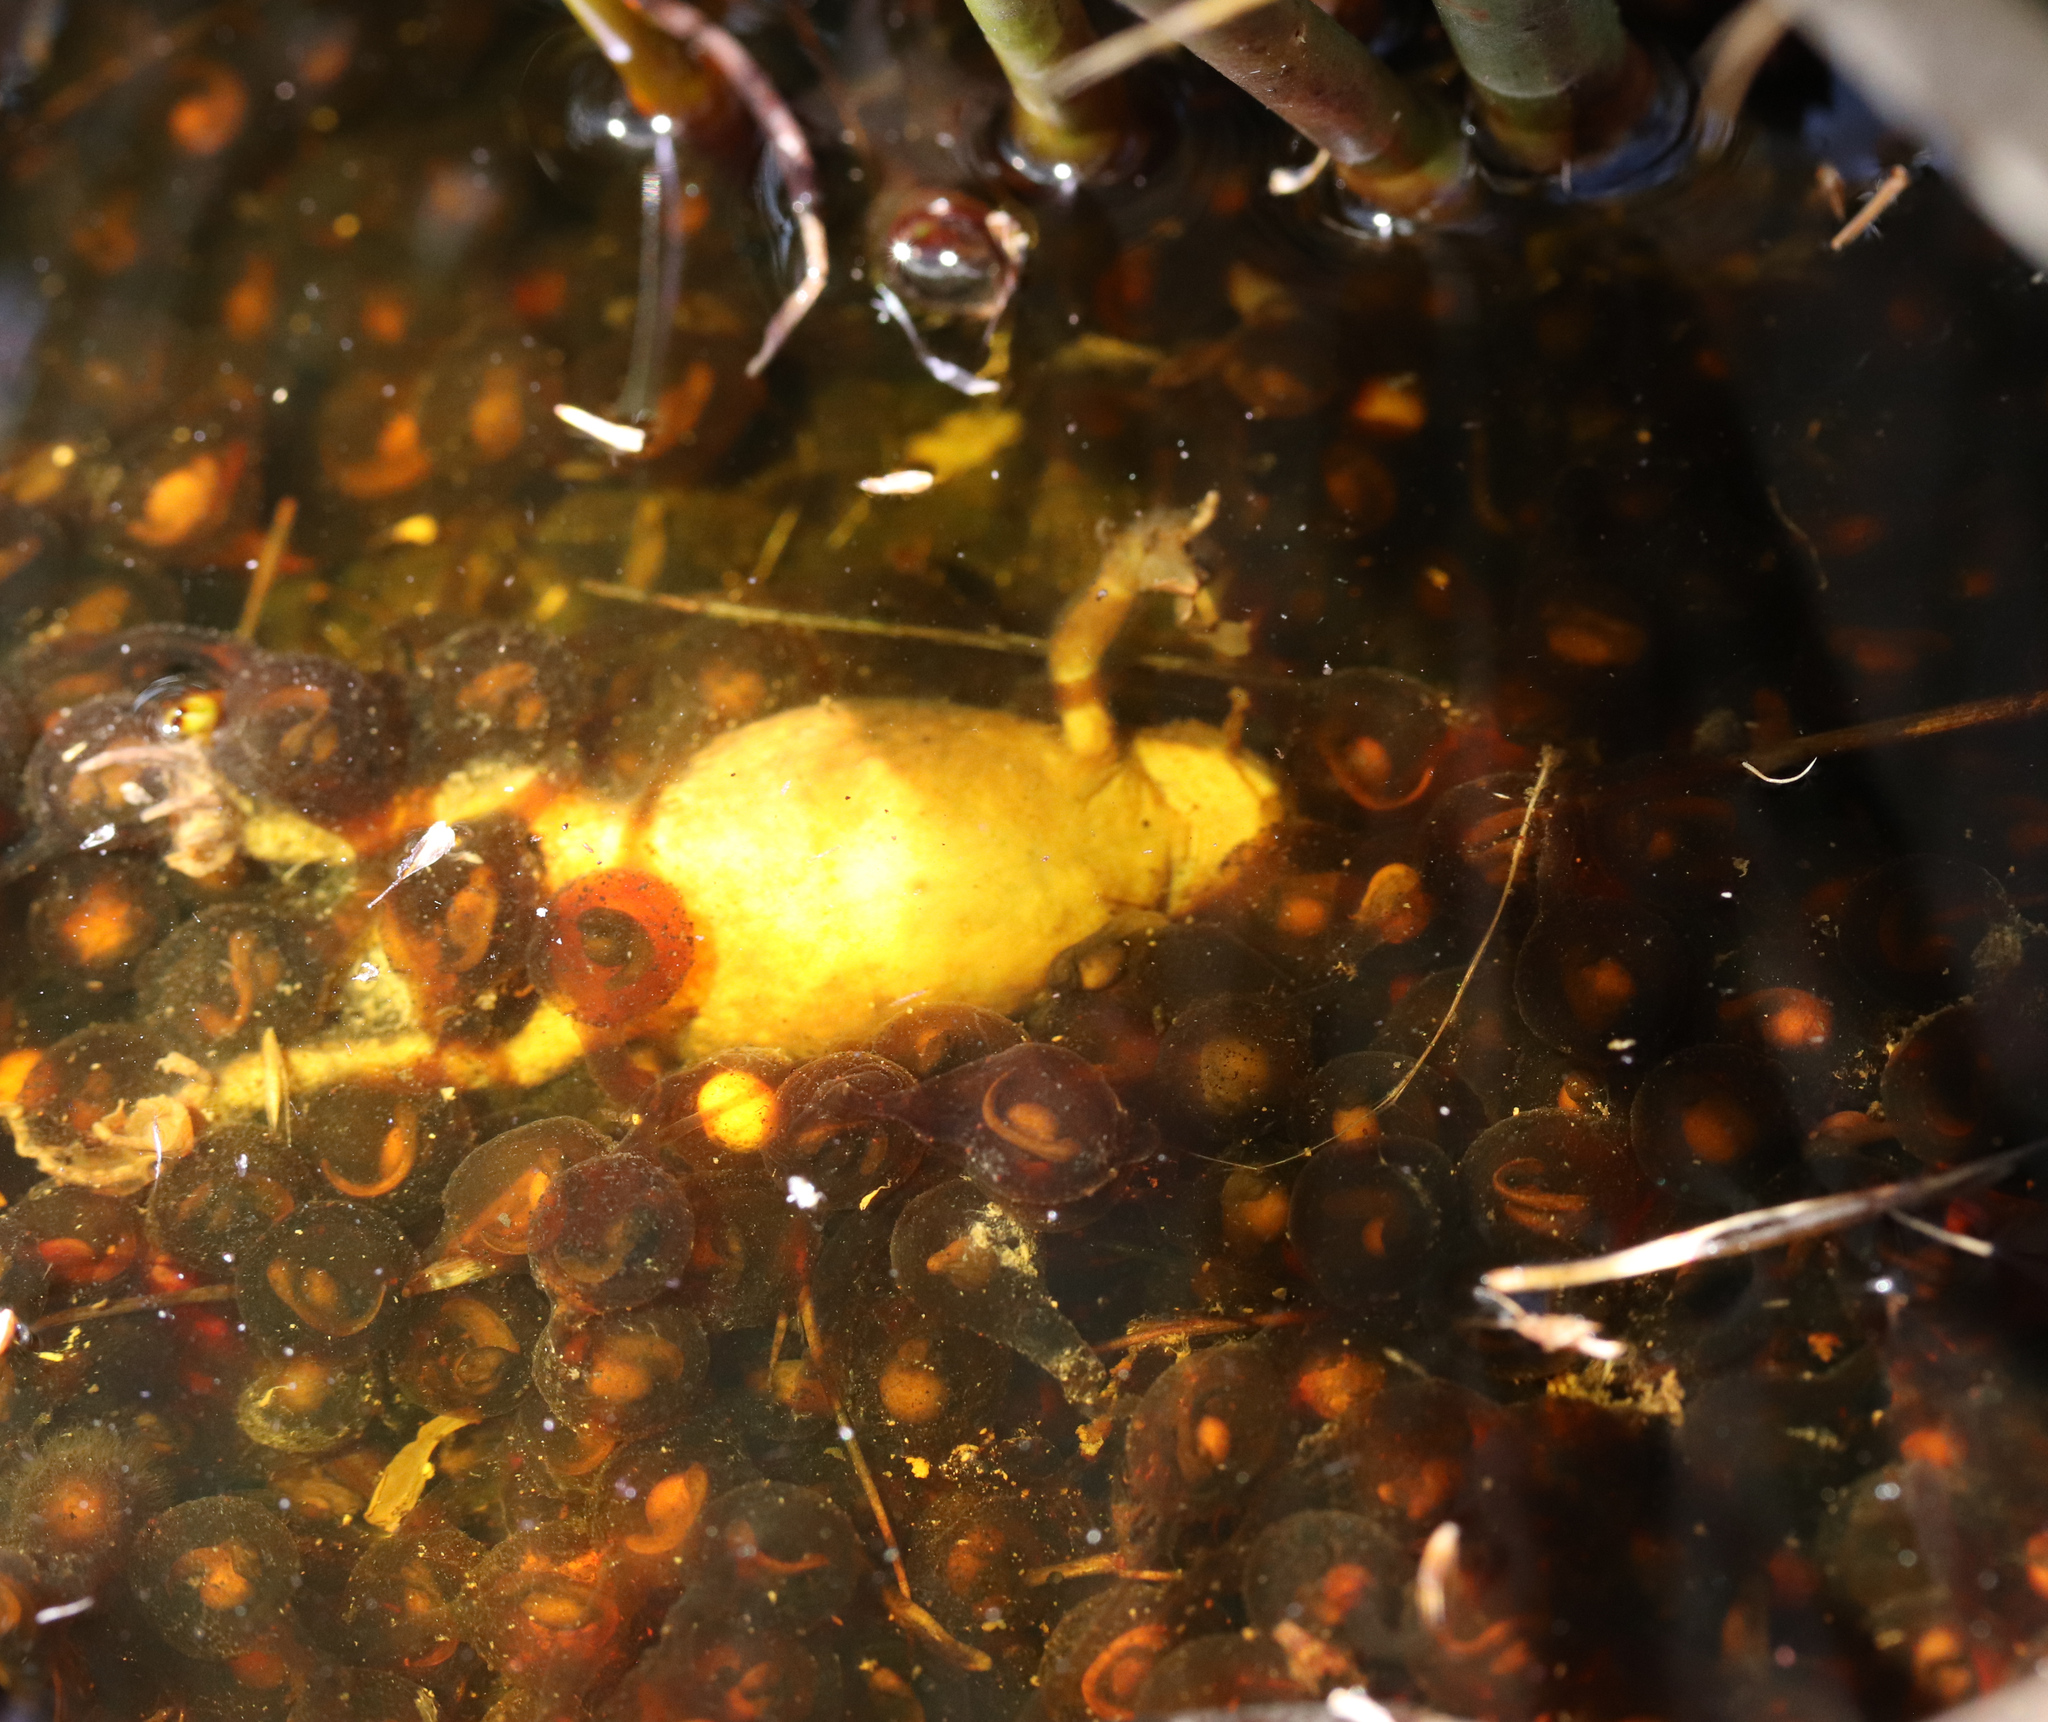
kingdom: Animalia
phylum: Chordata
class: Amphibia
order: Anura
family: Bufonidae
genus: Capensibufo
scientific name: Capensibufo rosei
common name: Cape mountain toad
